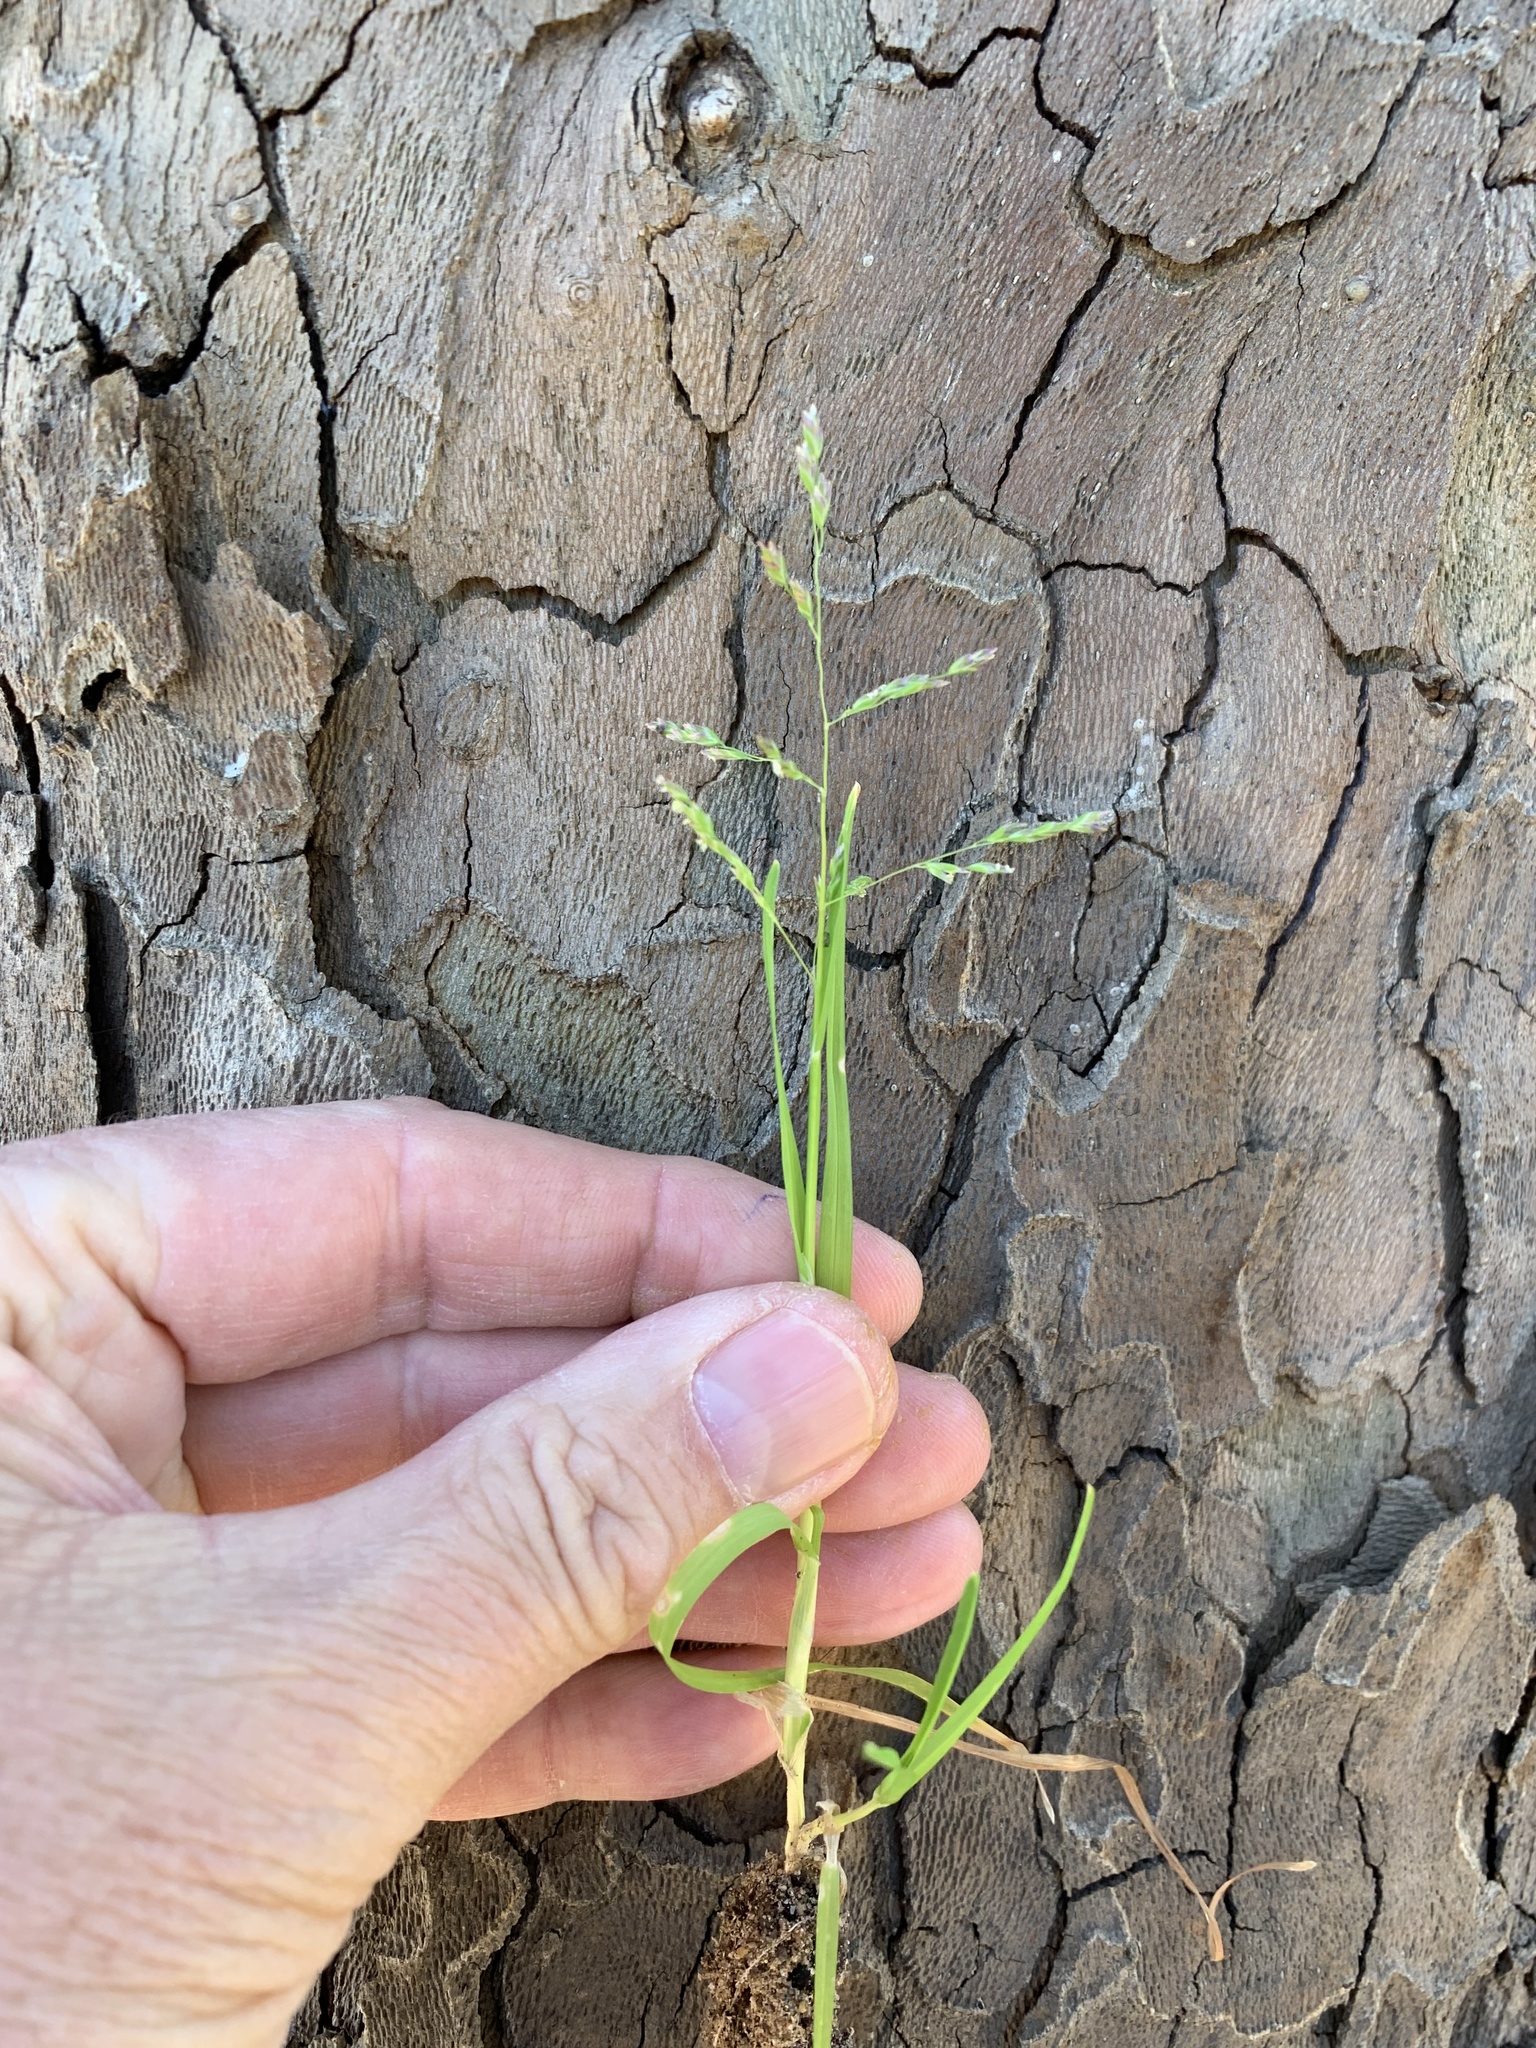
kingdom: Plantae
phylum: Tracheophyta
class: Liliopsida
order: Poales
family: Poaceae
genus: Poa
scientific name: Poa annua
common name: Annual bluegrass
